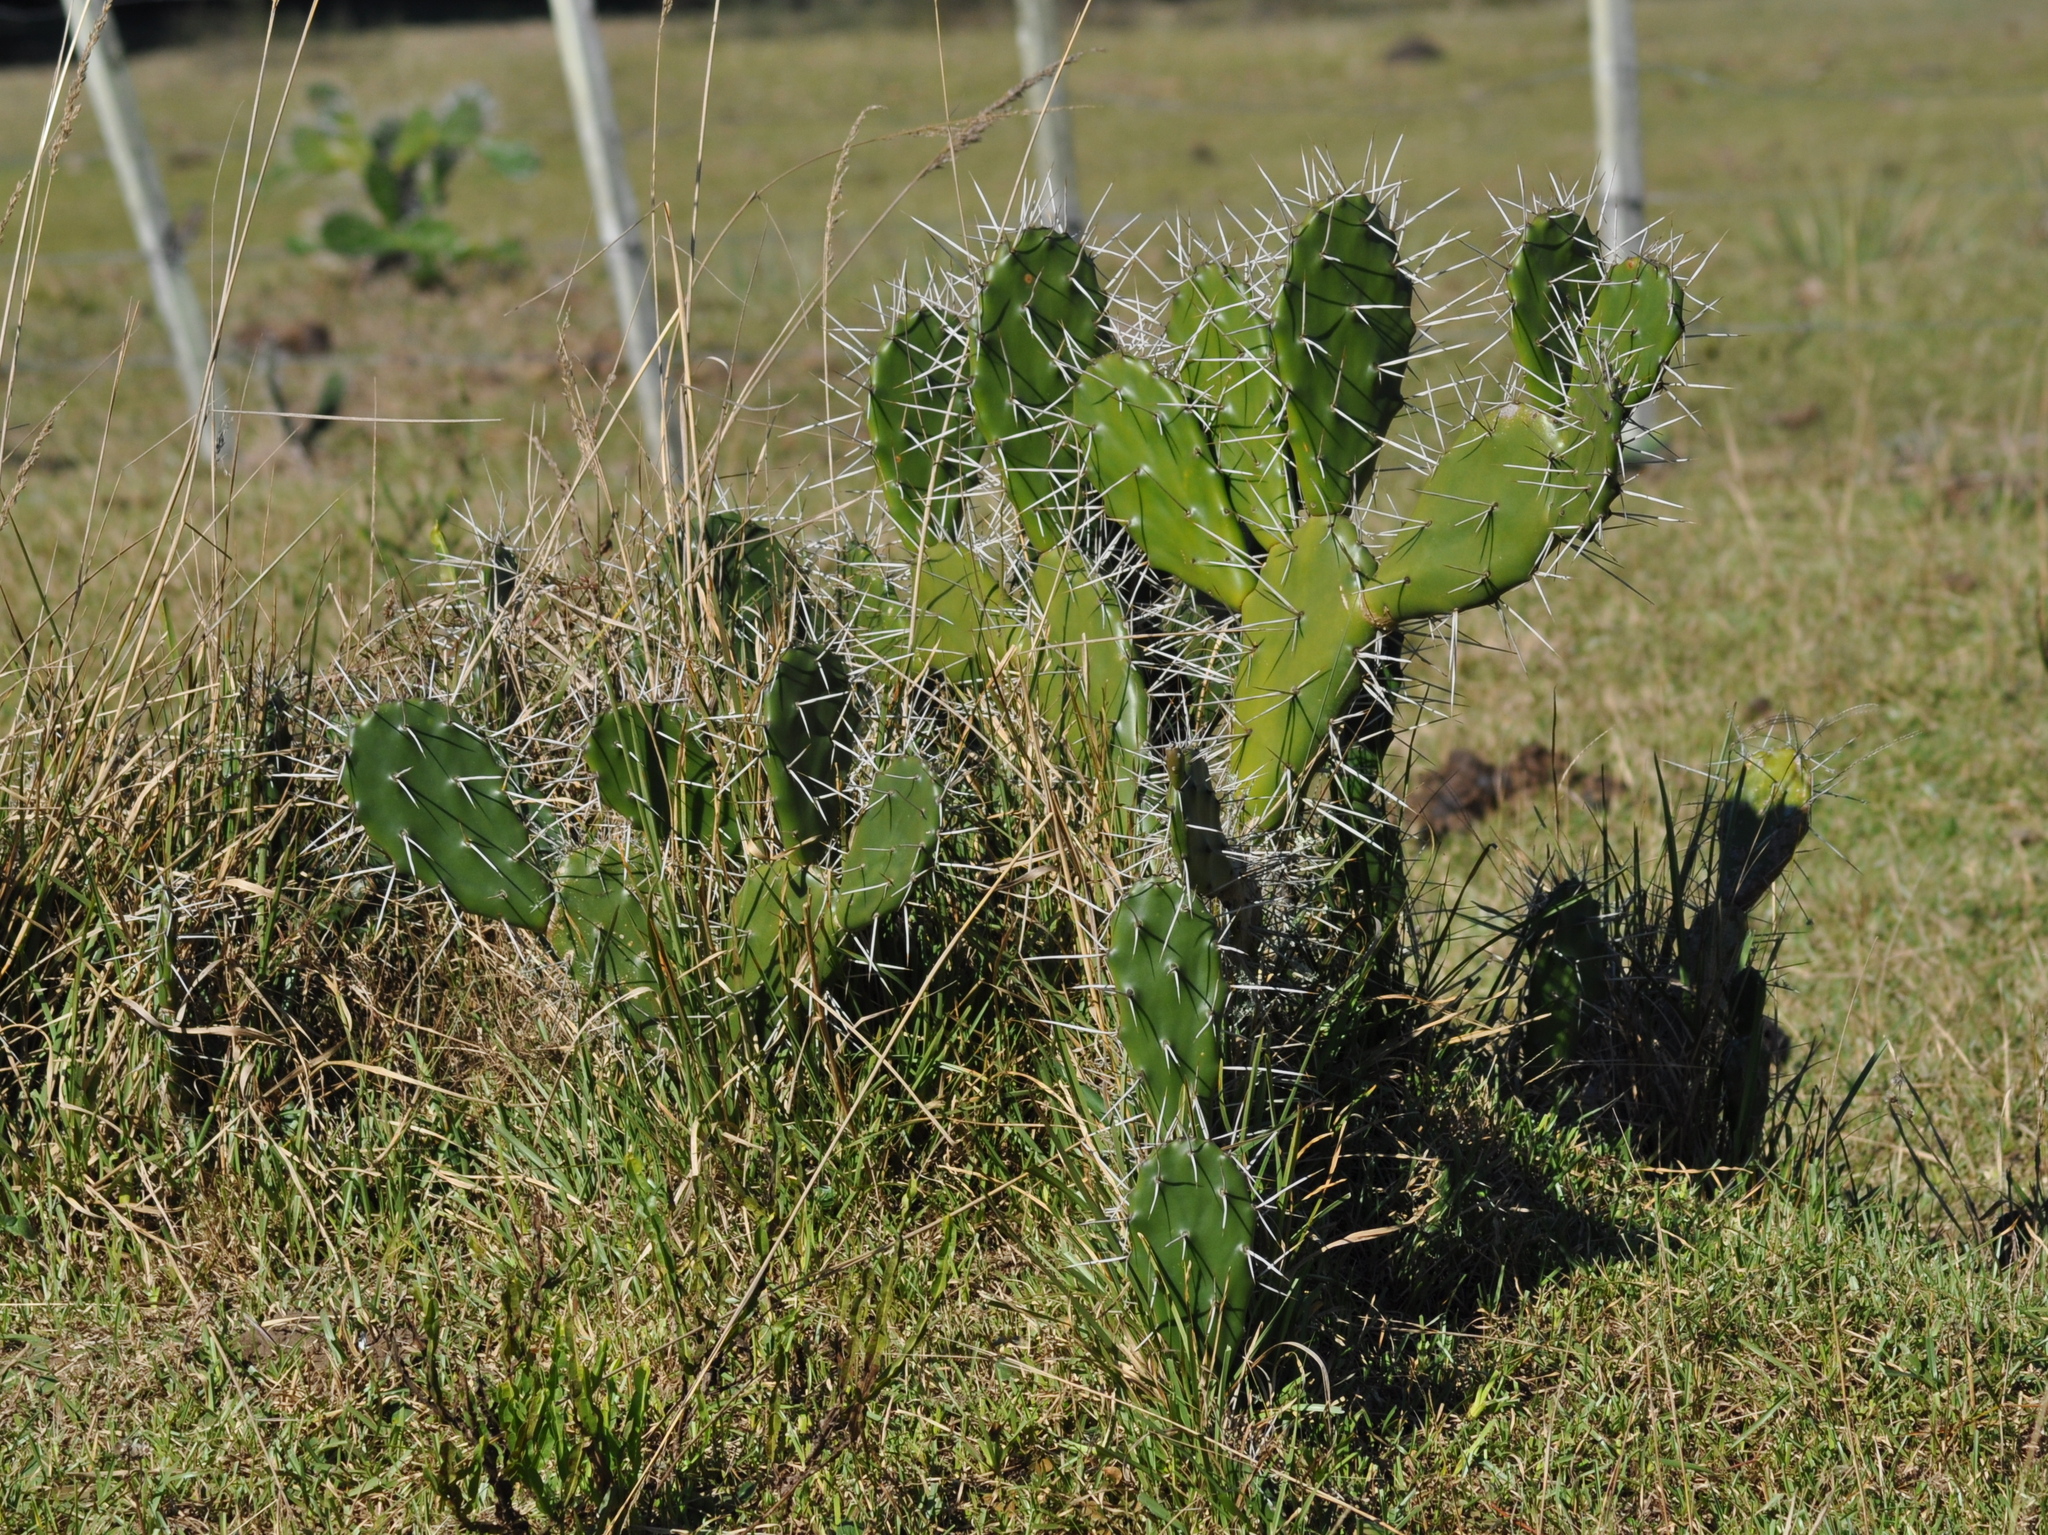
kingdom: Plantae
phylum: Tracheophyta
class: Magnoliopsida
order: Caryophyllales
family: Cactaceae
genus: Opuntia
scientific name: Opuntia monacantha
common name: Common pricklypear
